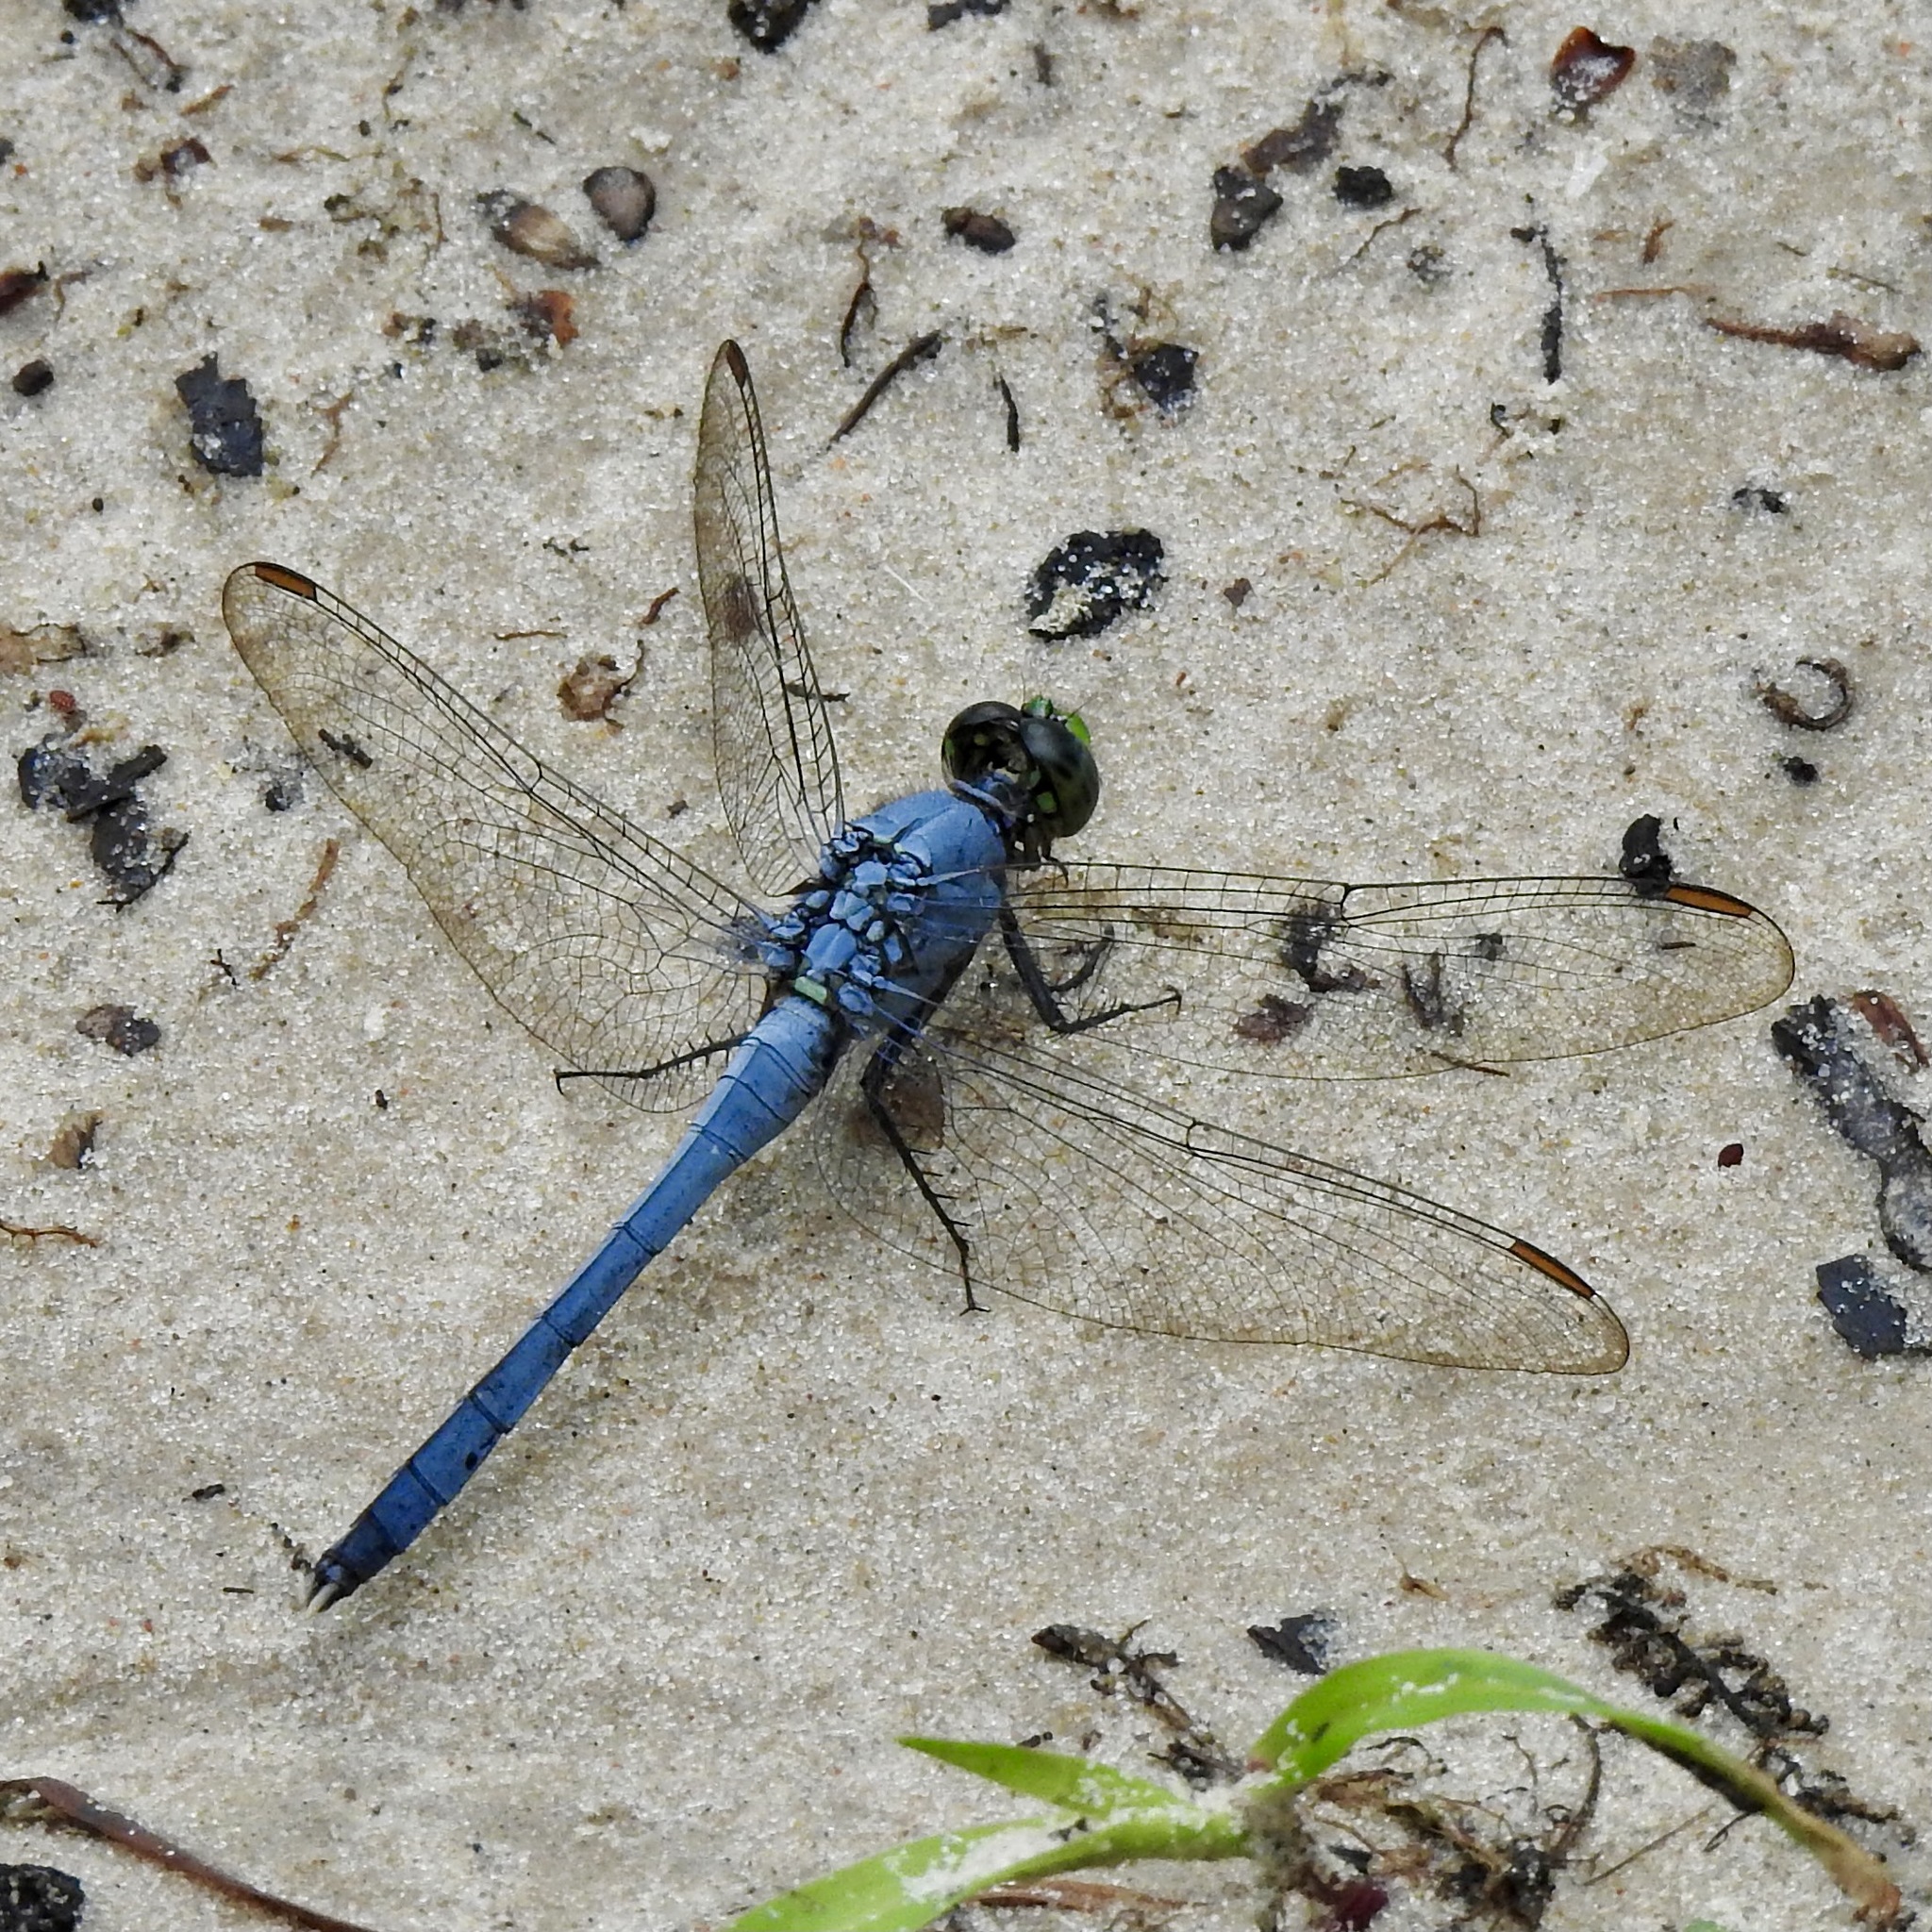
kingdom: Animalia
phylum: Arthropoda
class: Insecta
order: Odonata
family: Libellulidae
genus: Erythemis
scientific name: Erythemis simplicicollis
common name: Eastern pondhawk
